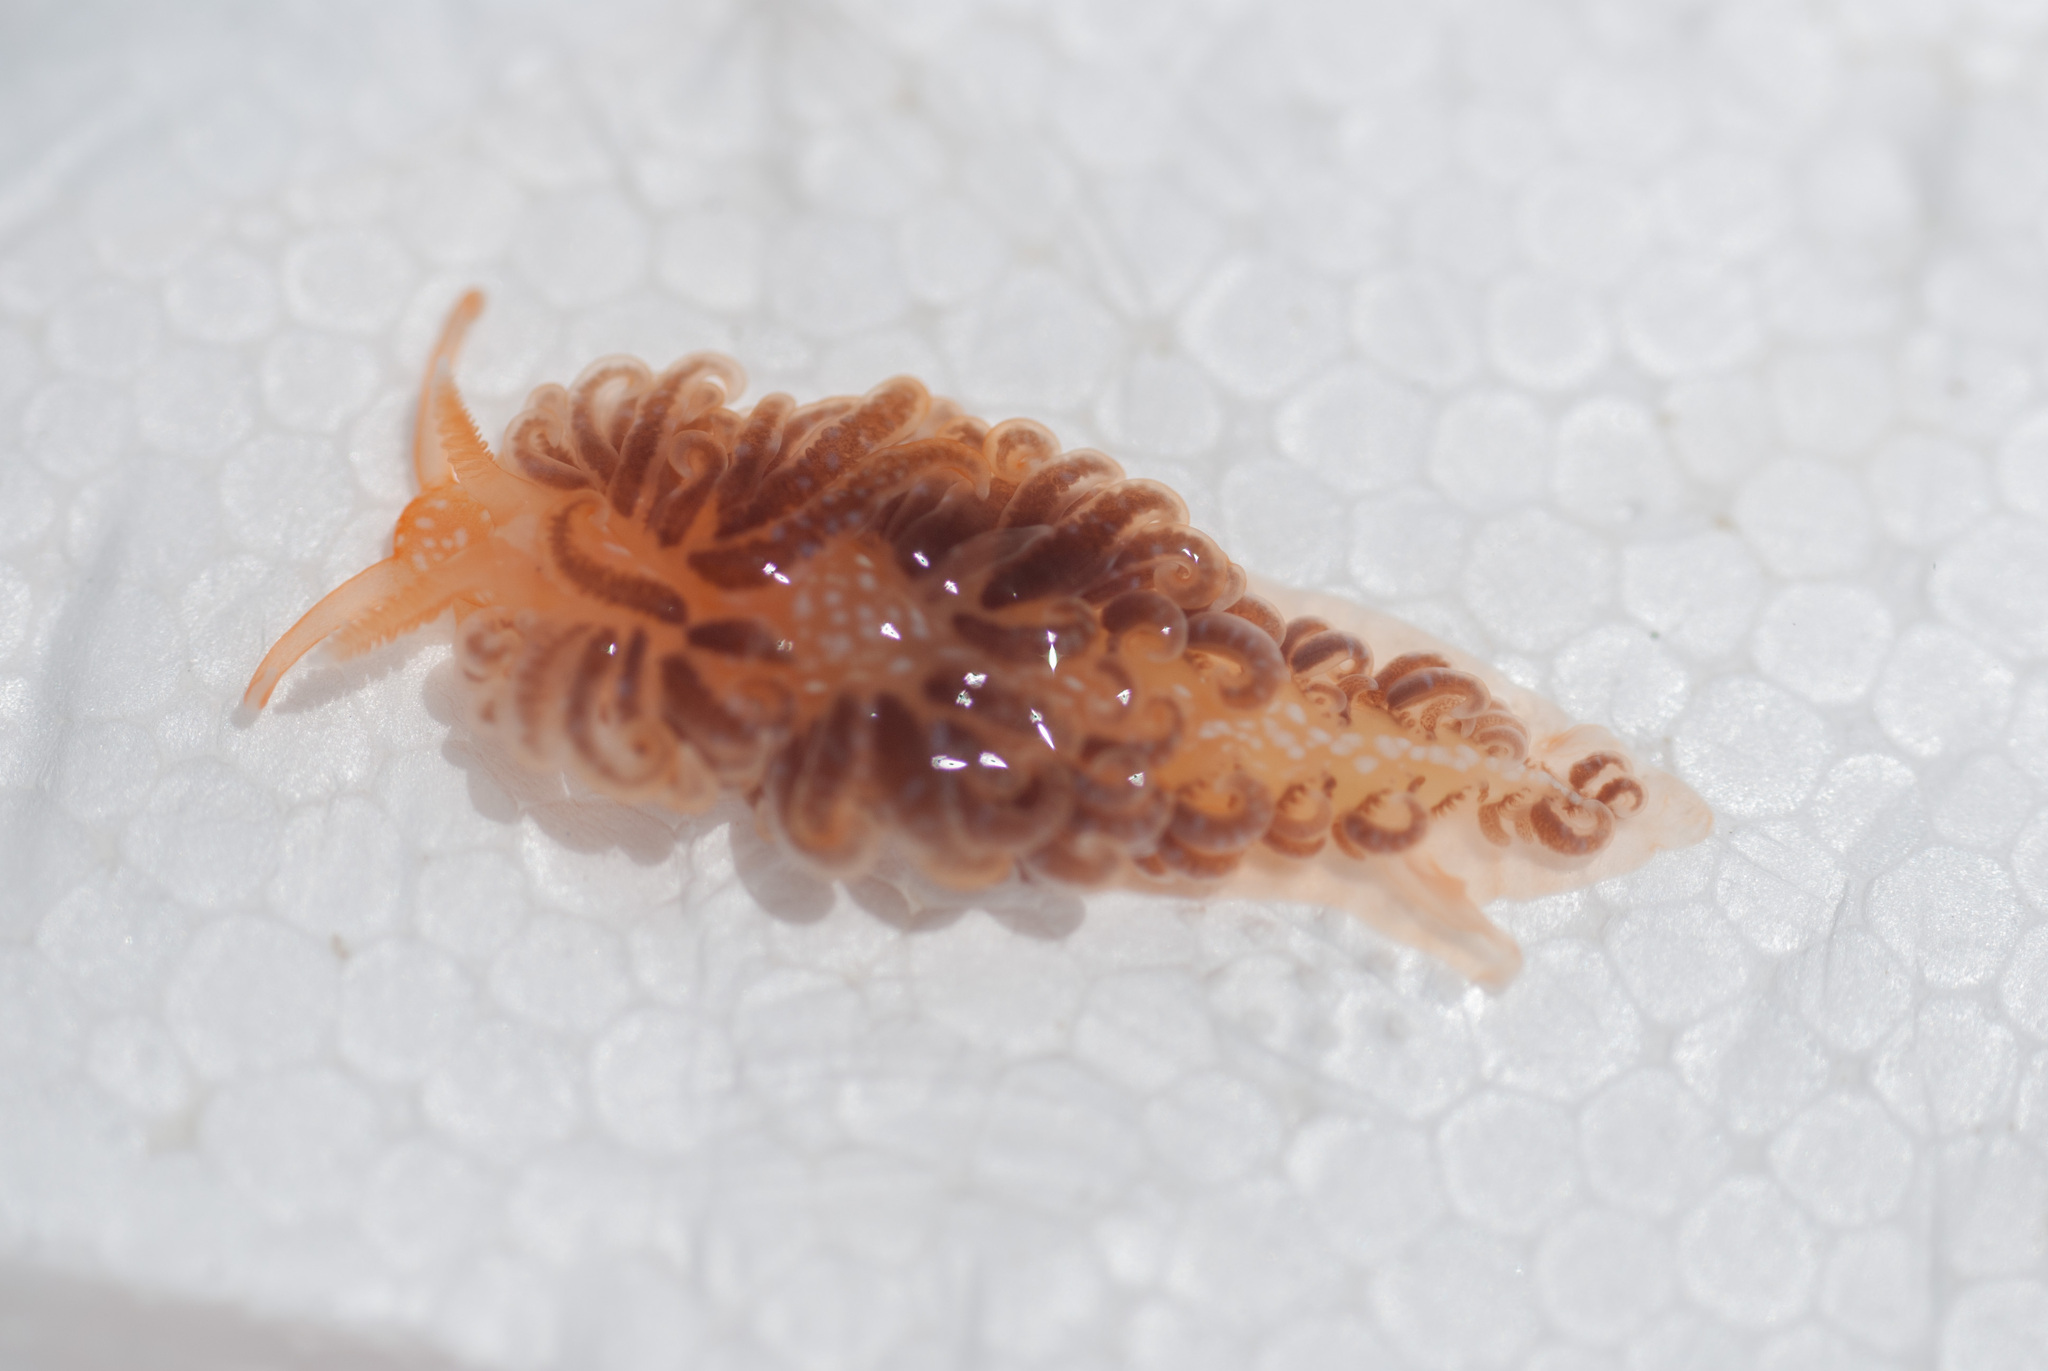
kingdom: Animalia
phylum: Mollusca
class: Gastropoda
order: Nudibranchia
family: Aeolidiidae
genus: Spurilla
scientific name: Spurilla braziliana
